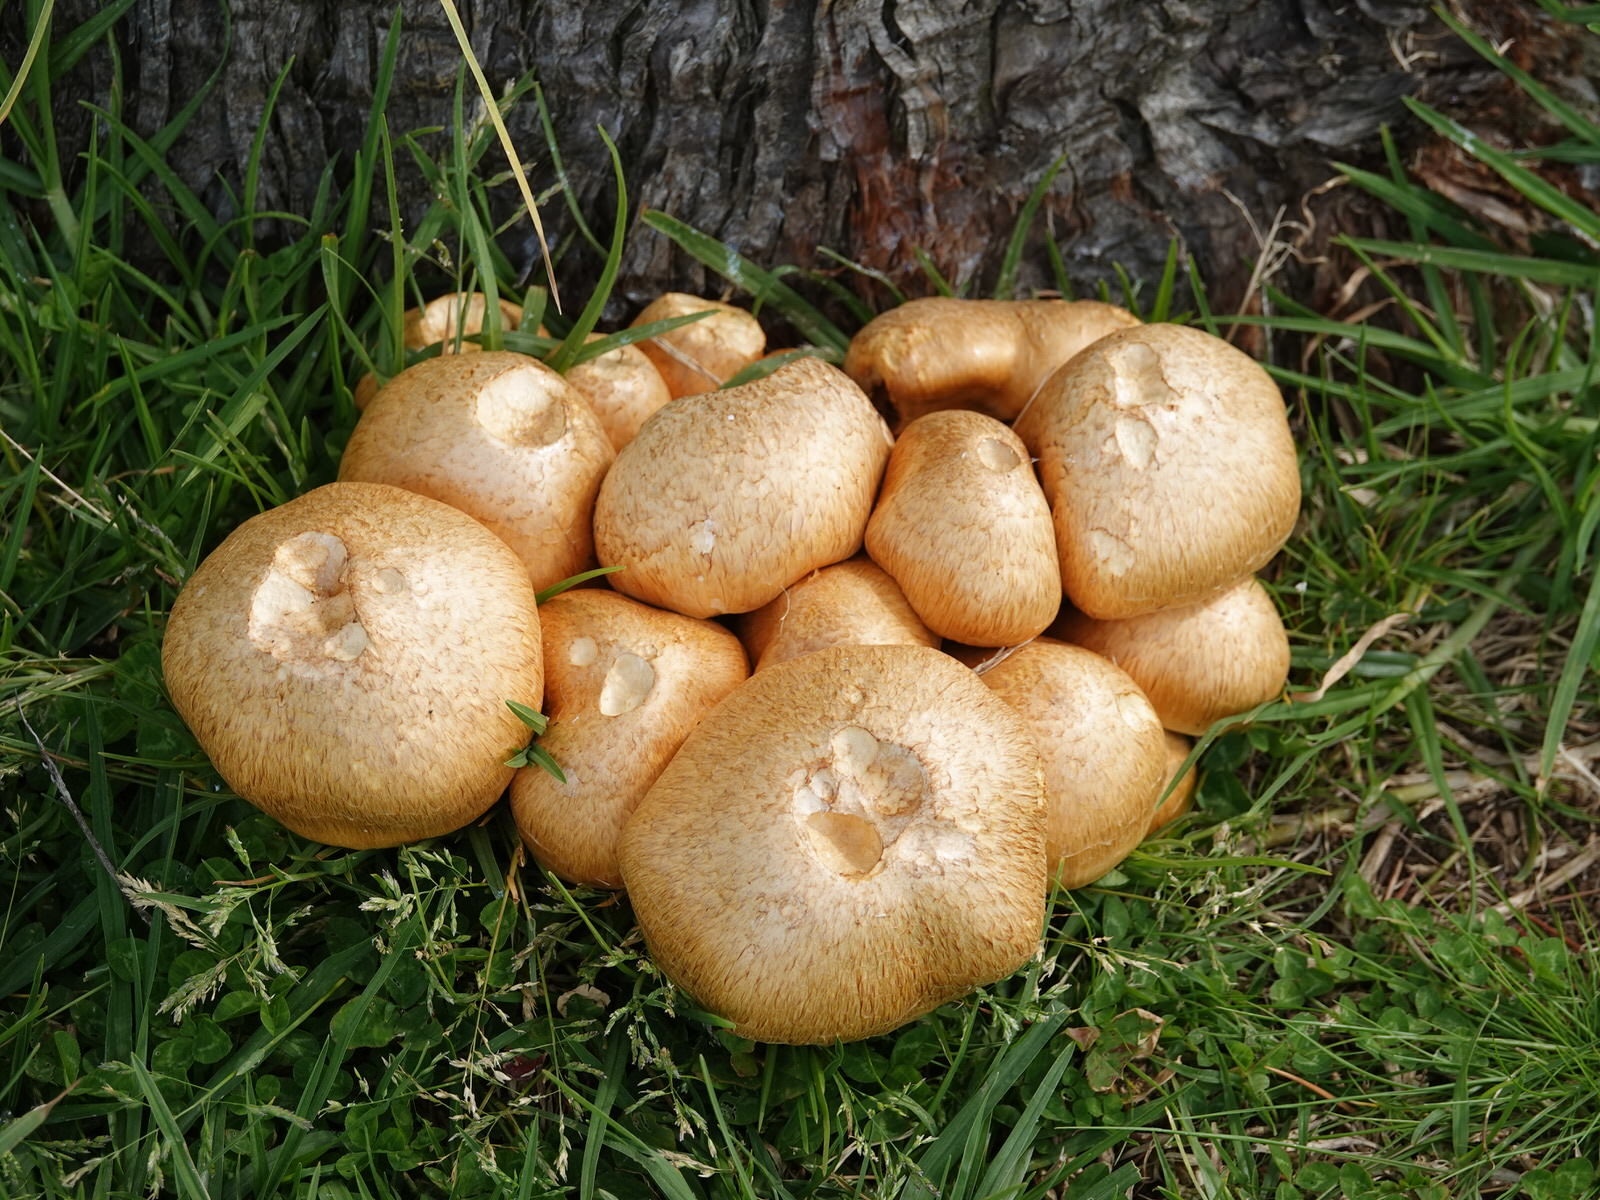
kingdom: Fungi
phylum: Basidiomycota
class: Agaricomycetes
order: Agaricales
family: Hymenogastraceae
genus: Gymnopilus
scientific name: Gymnopilus junonius
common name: Spectacular rustgill
